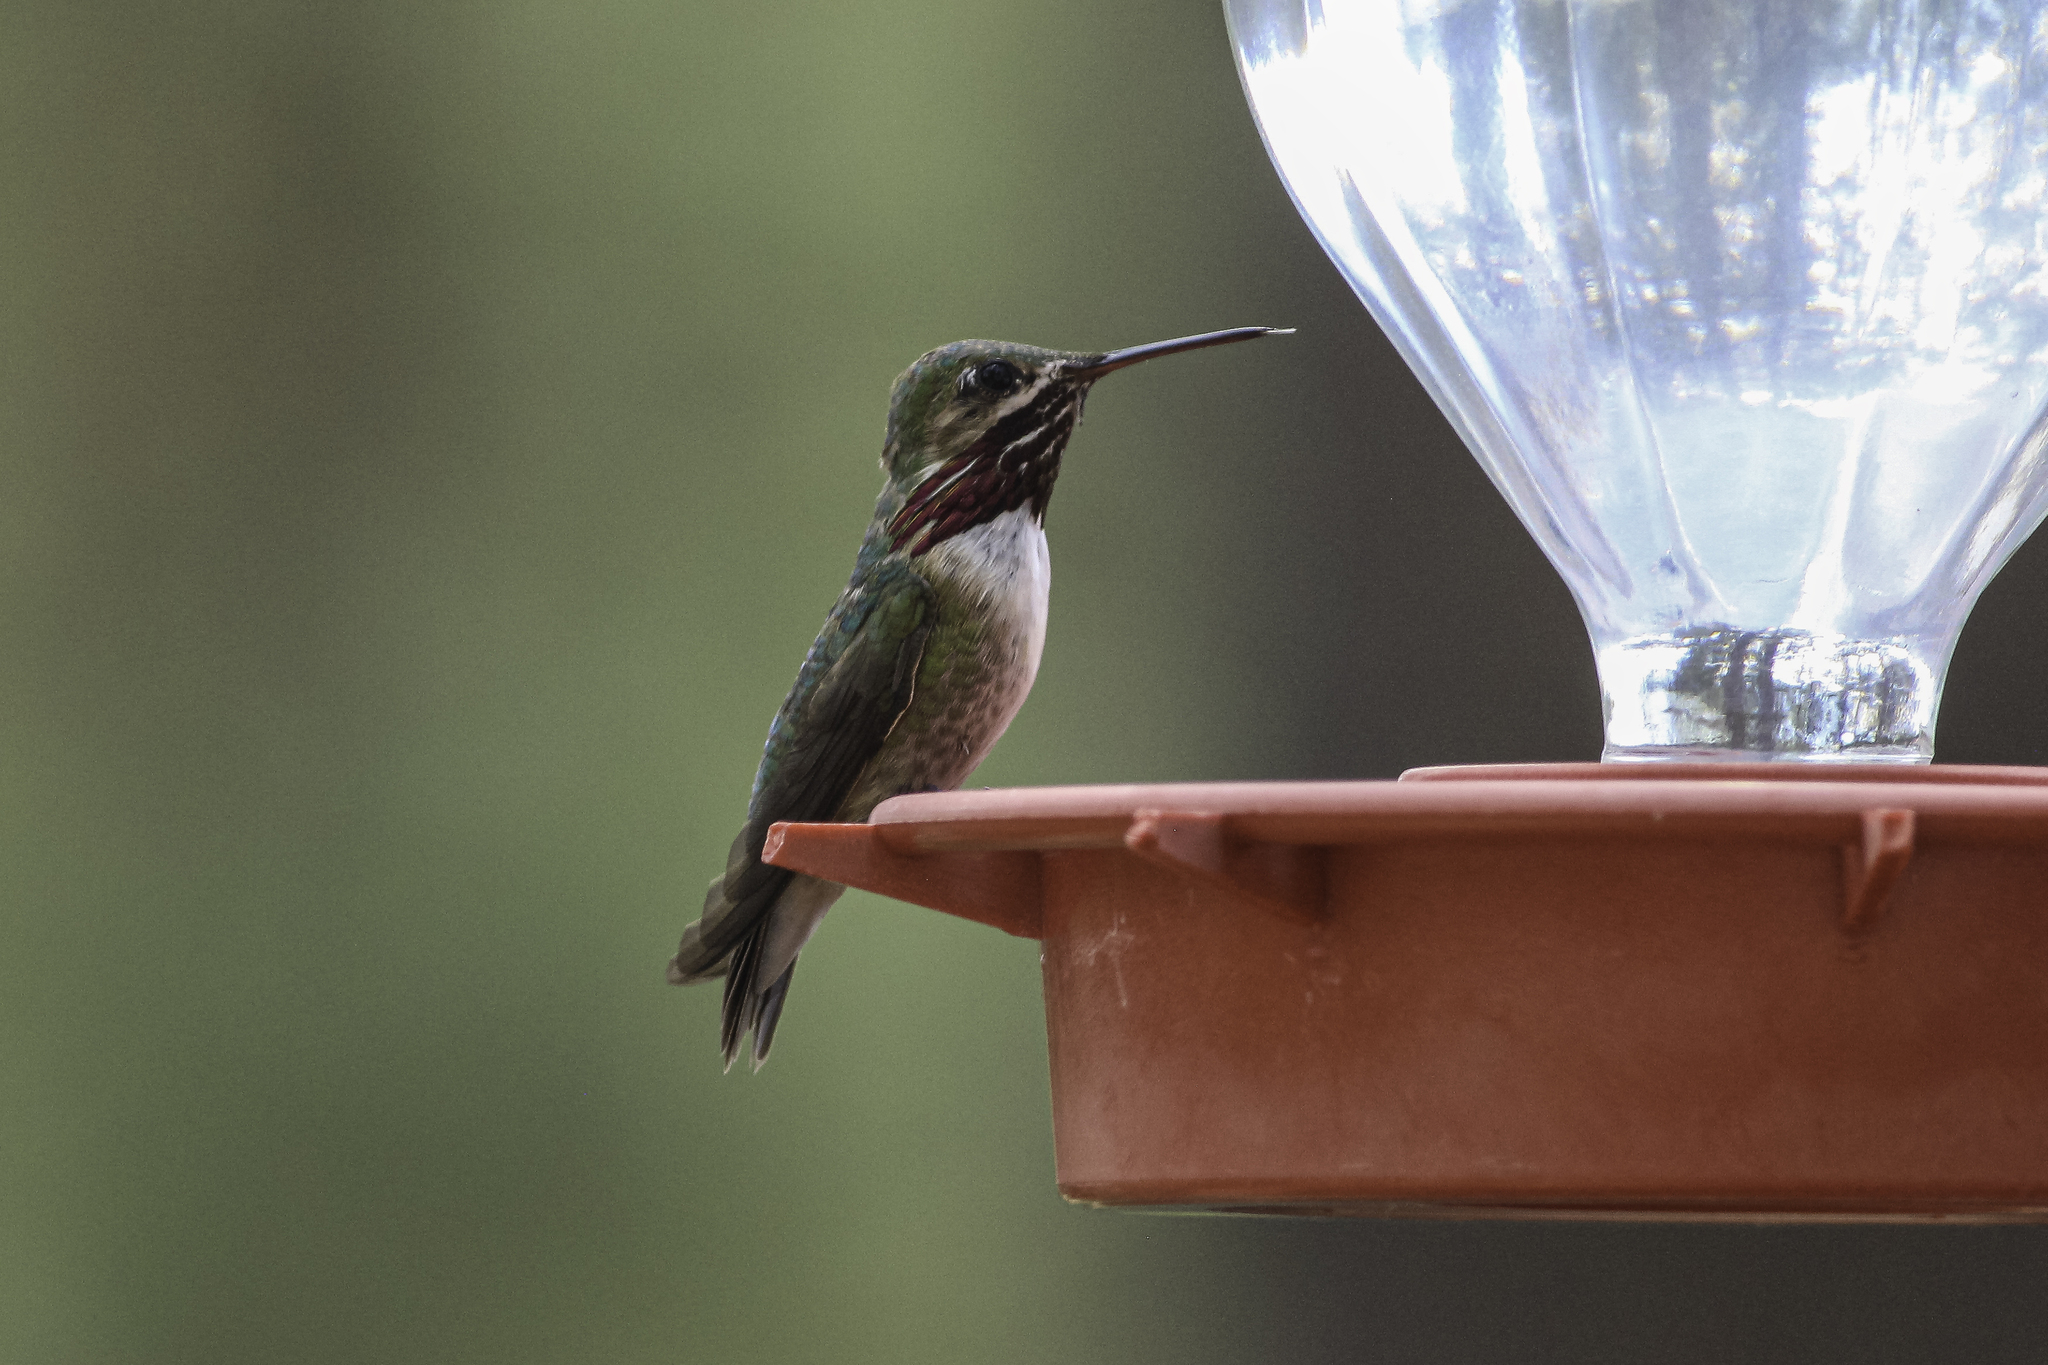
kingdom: Animalia
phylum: Chordata
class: Aves
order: Apodiformes
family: Trochilidae
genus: Selasphorus
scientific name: Selasphorus calliope
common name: Calliope hummingbird
